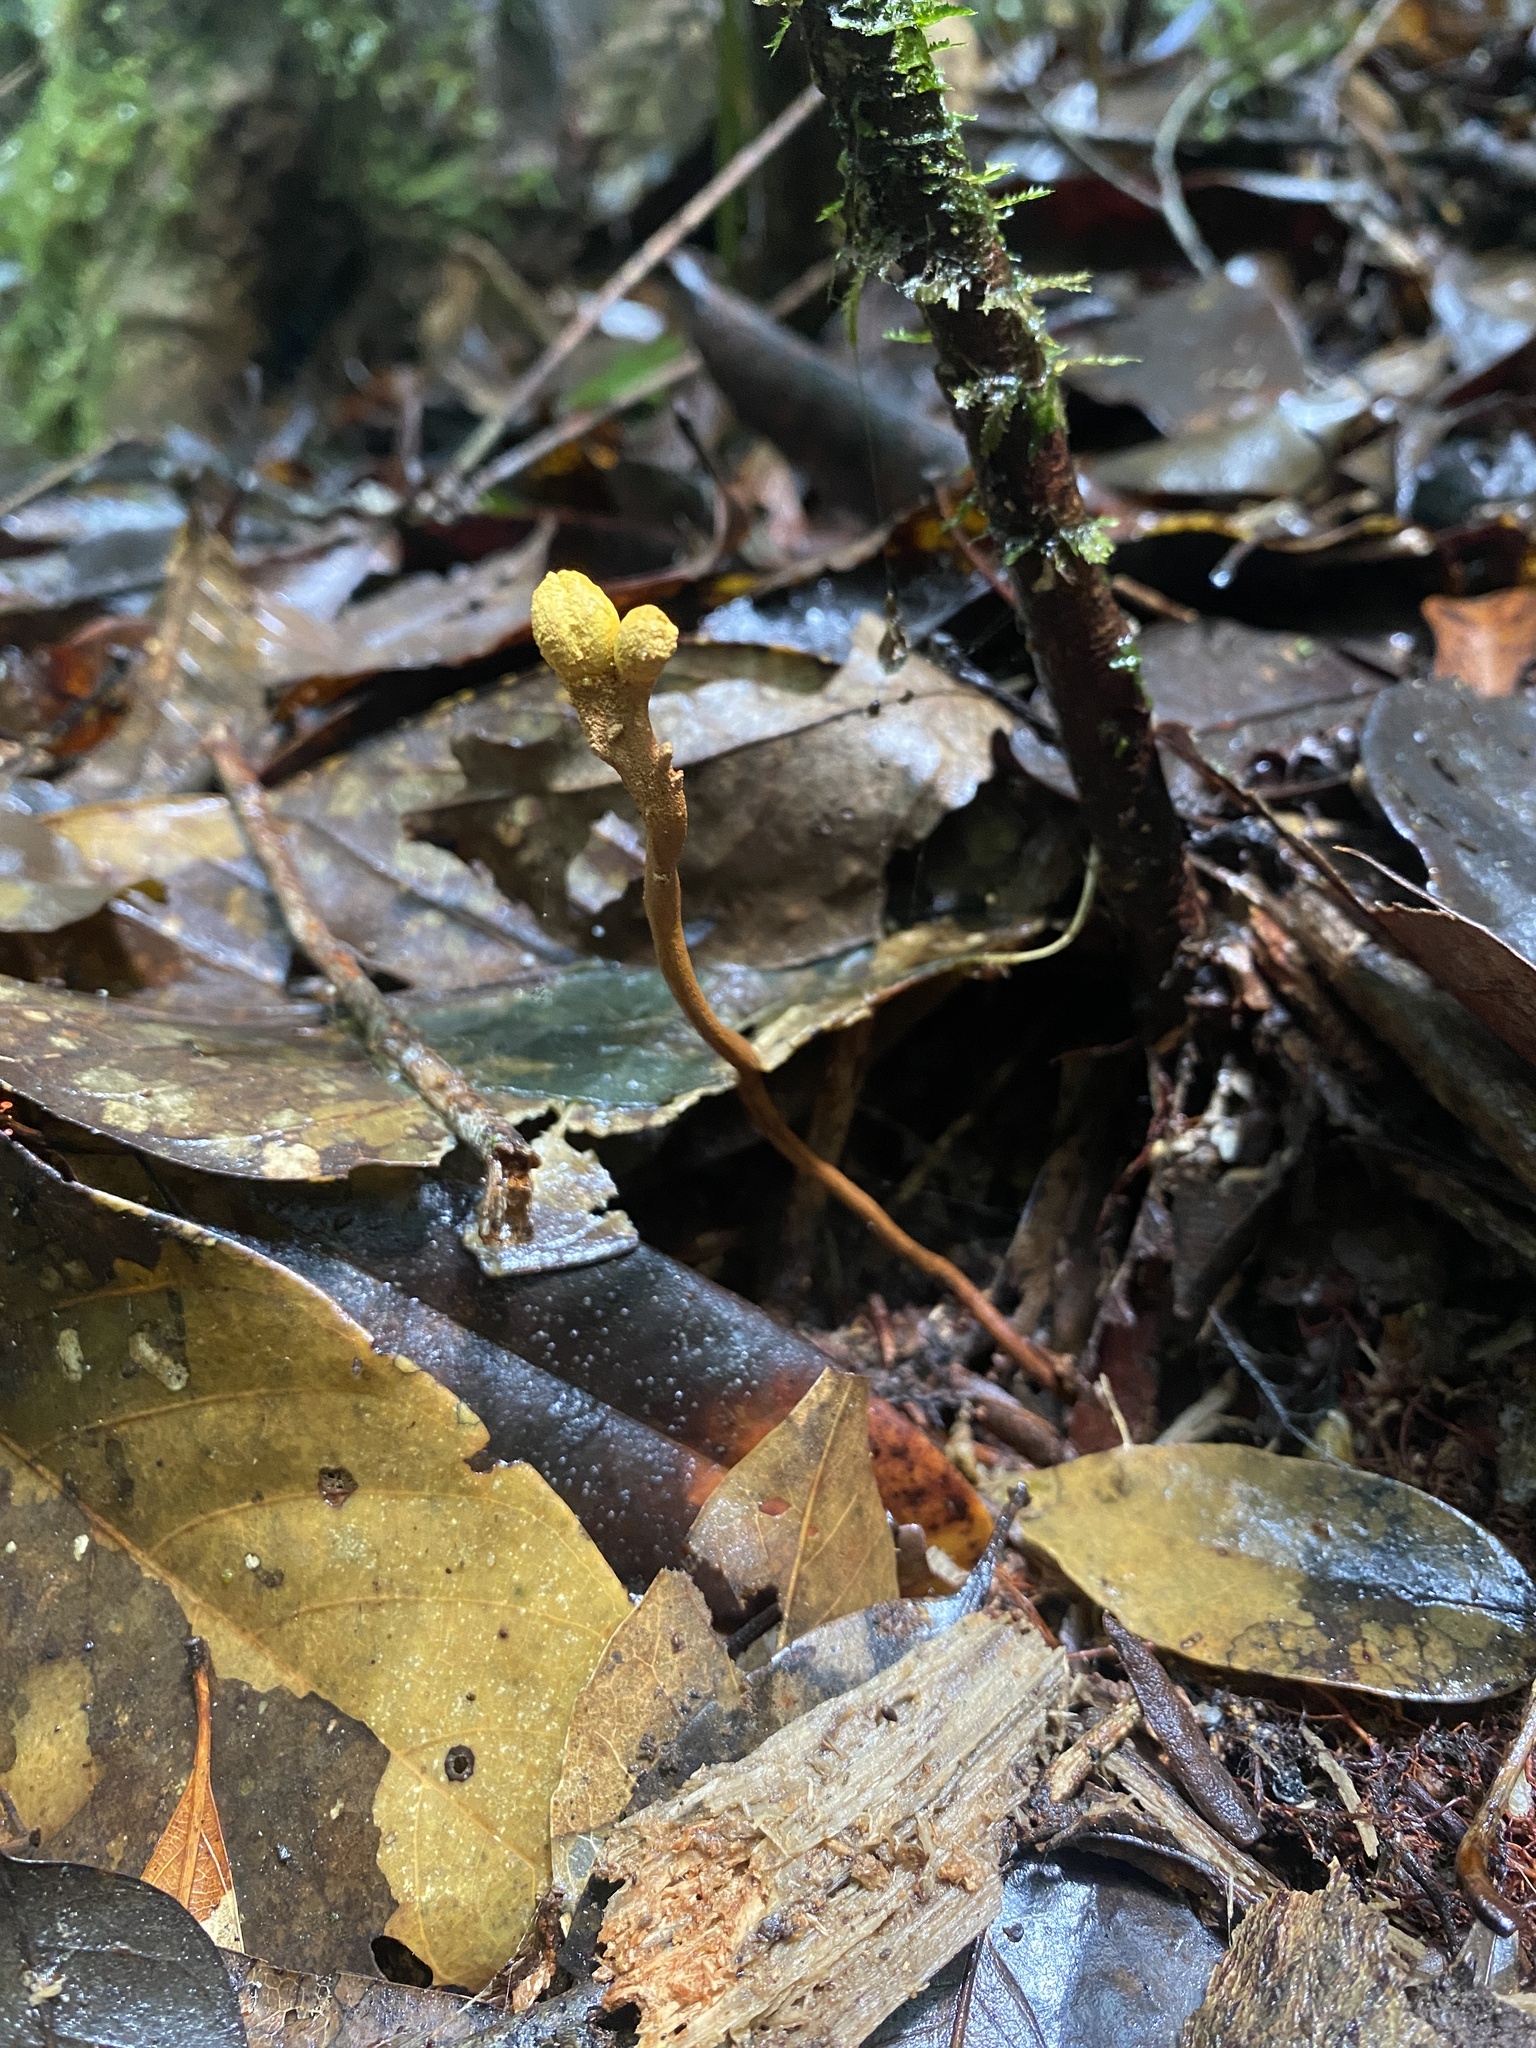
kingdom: Fungi
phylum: Ascomycota
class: Eurotiomycetes
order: Eurotiales
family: Aspergillaceae
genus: Dendrosphaera
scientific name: Dendrosphaera eberhardtii
